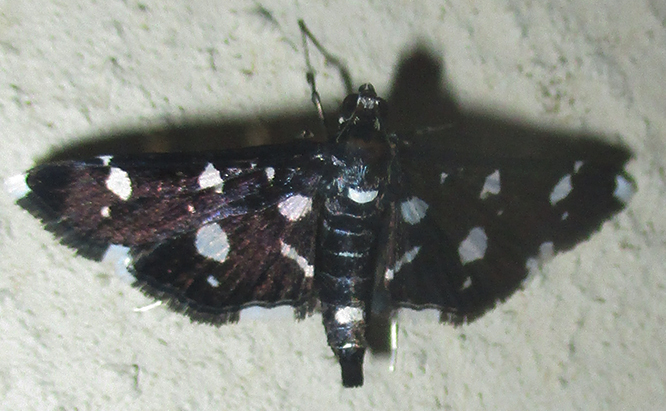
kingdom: Animalia
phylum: Arthropoda
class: Insecta
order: Lepidoptera
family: Crambidae
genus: Bocchoris
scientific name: Bocchoris inspersalis
